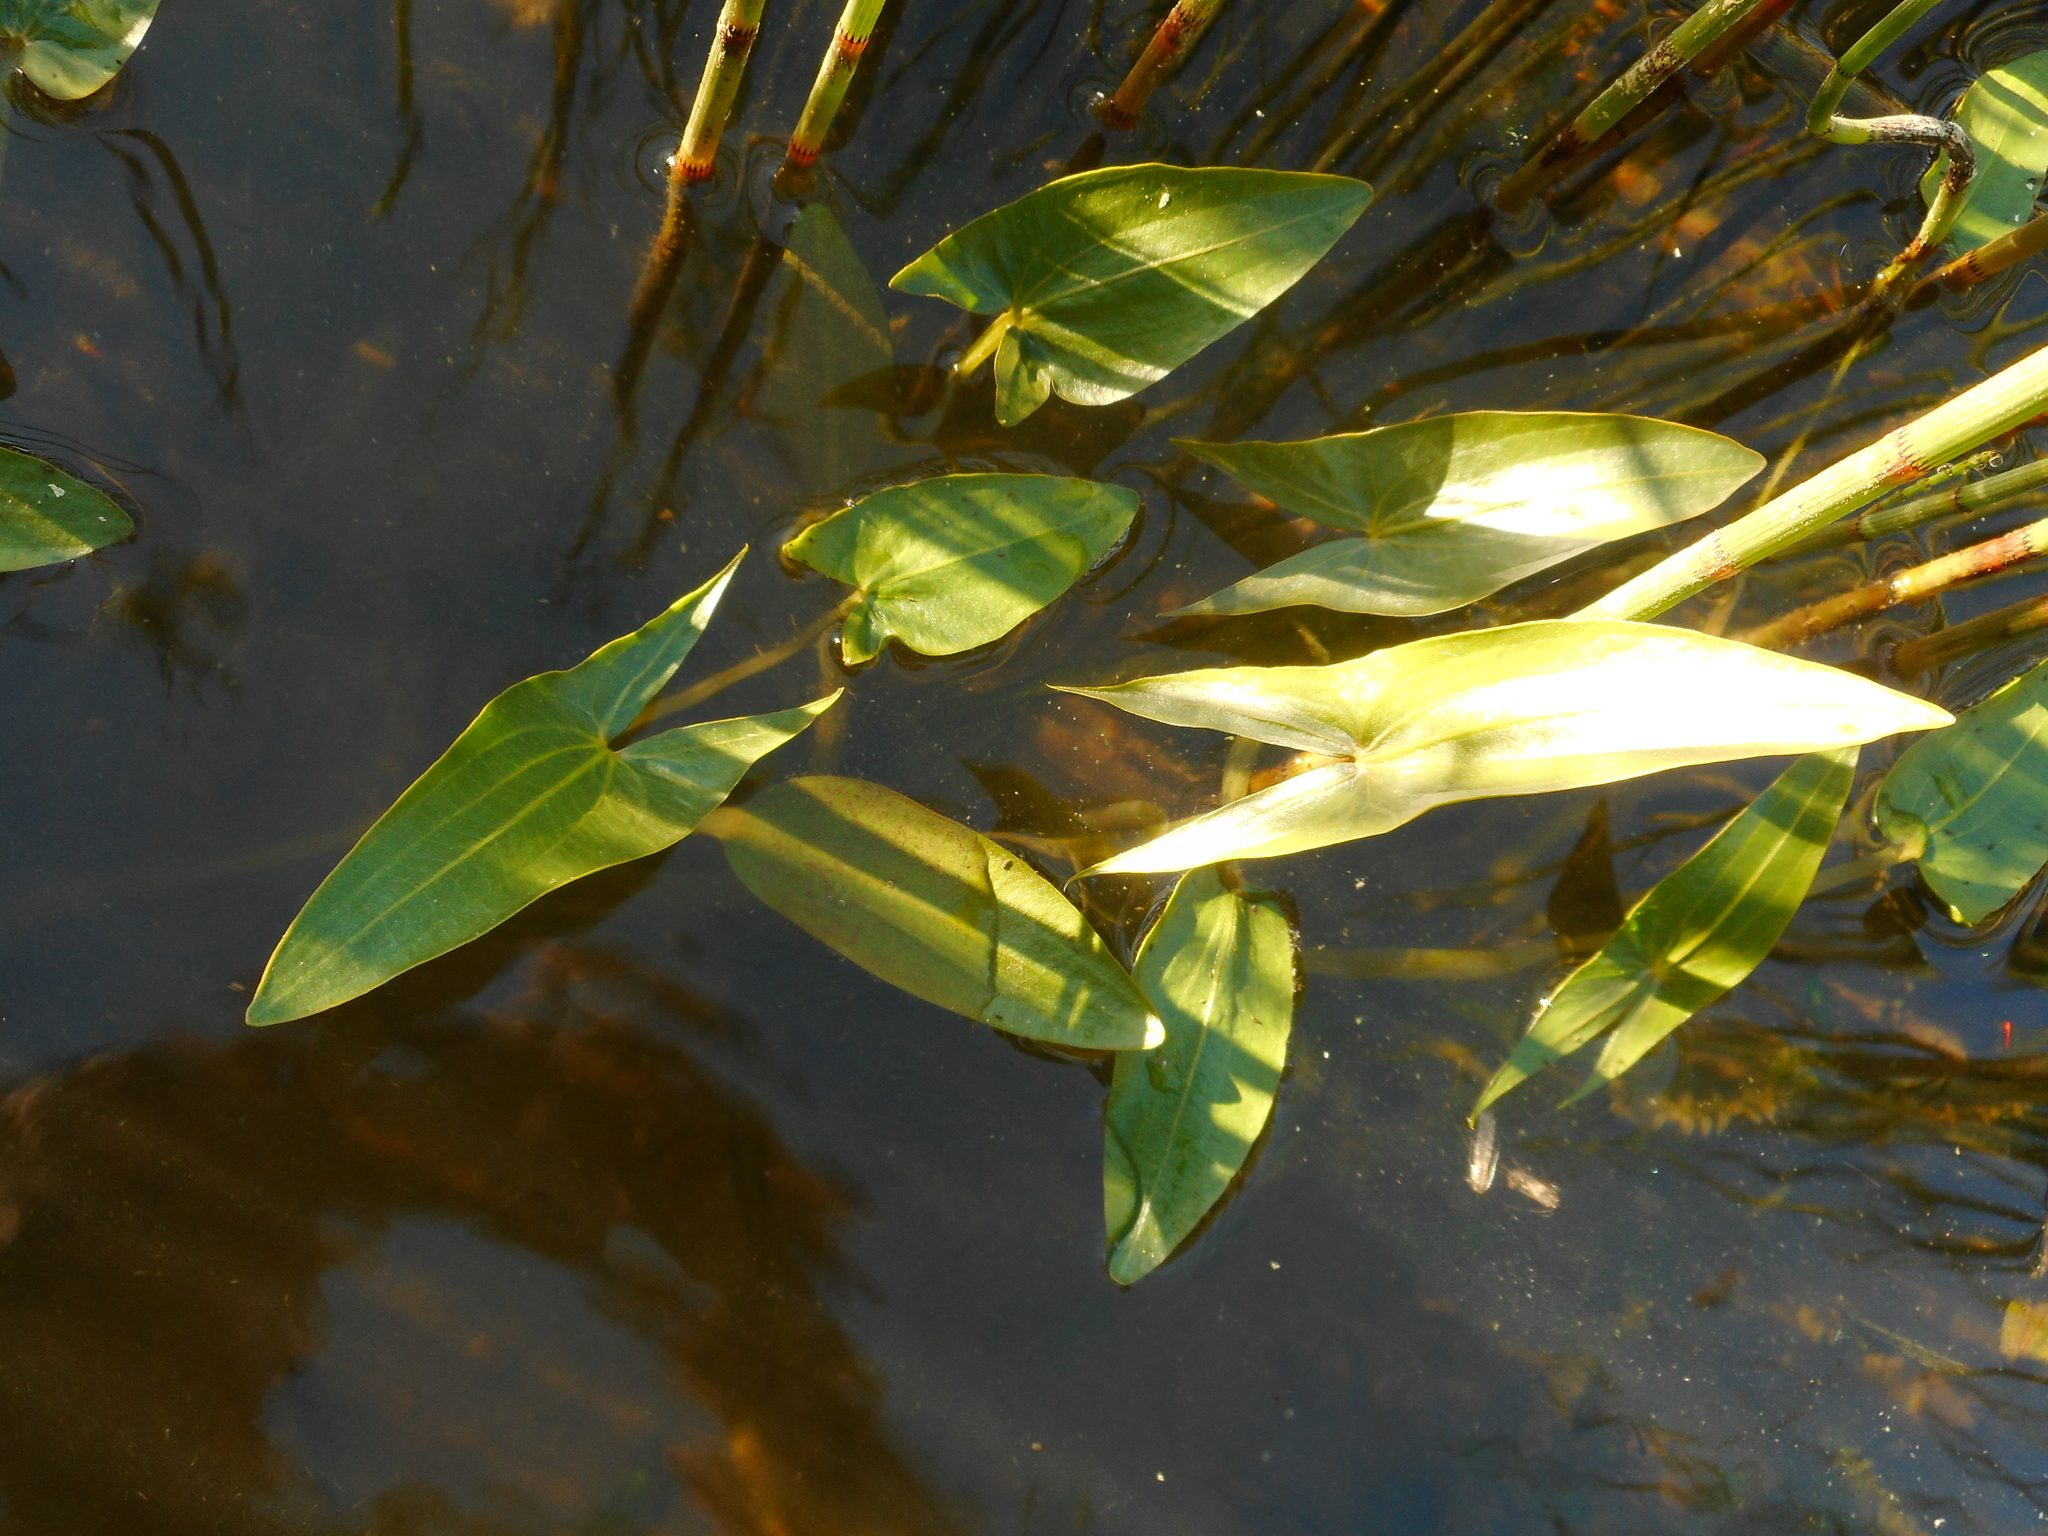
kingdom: Plantae
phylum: Tracheophyta
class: Liliopsida
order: Alismatales
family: Alismataceae
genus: Sagittaria
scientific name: Sagittaria sagittifolia
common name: Arrowhead
